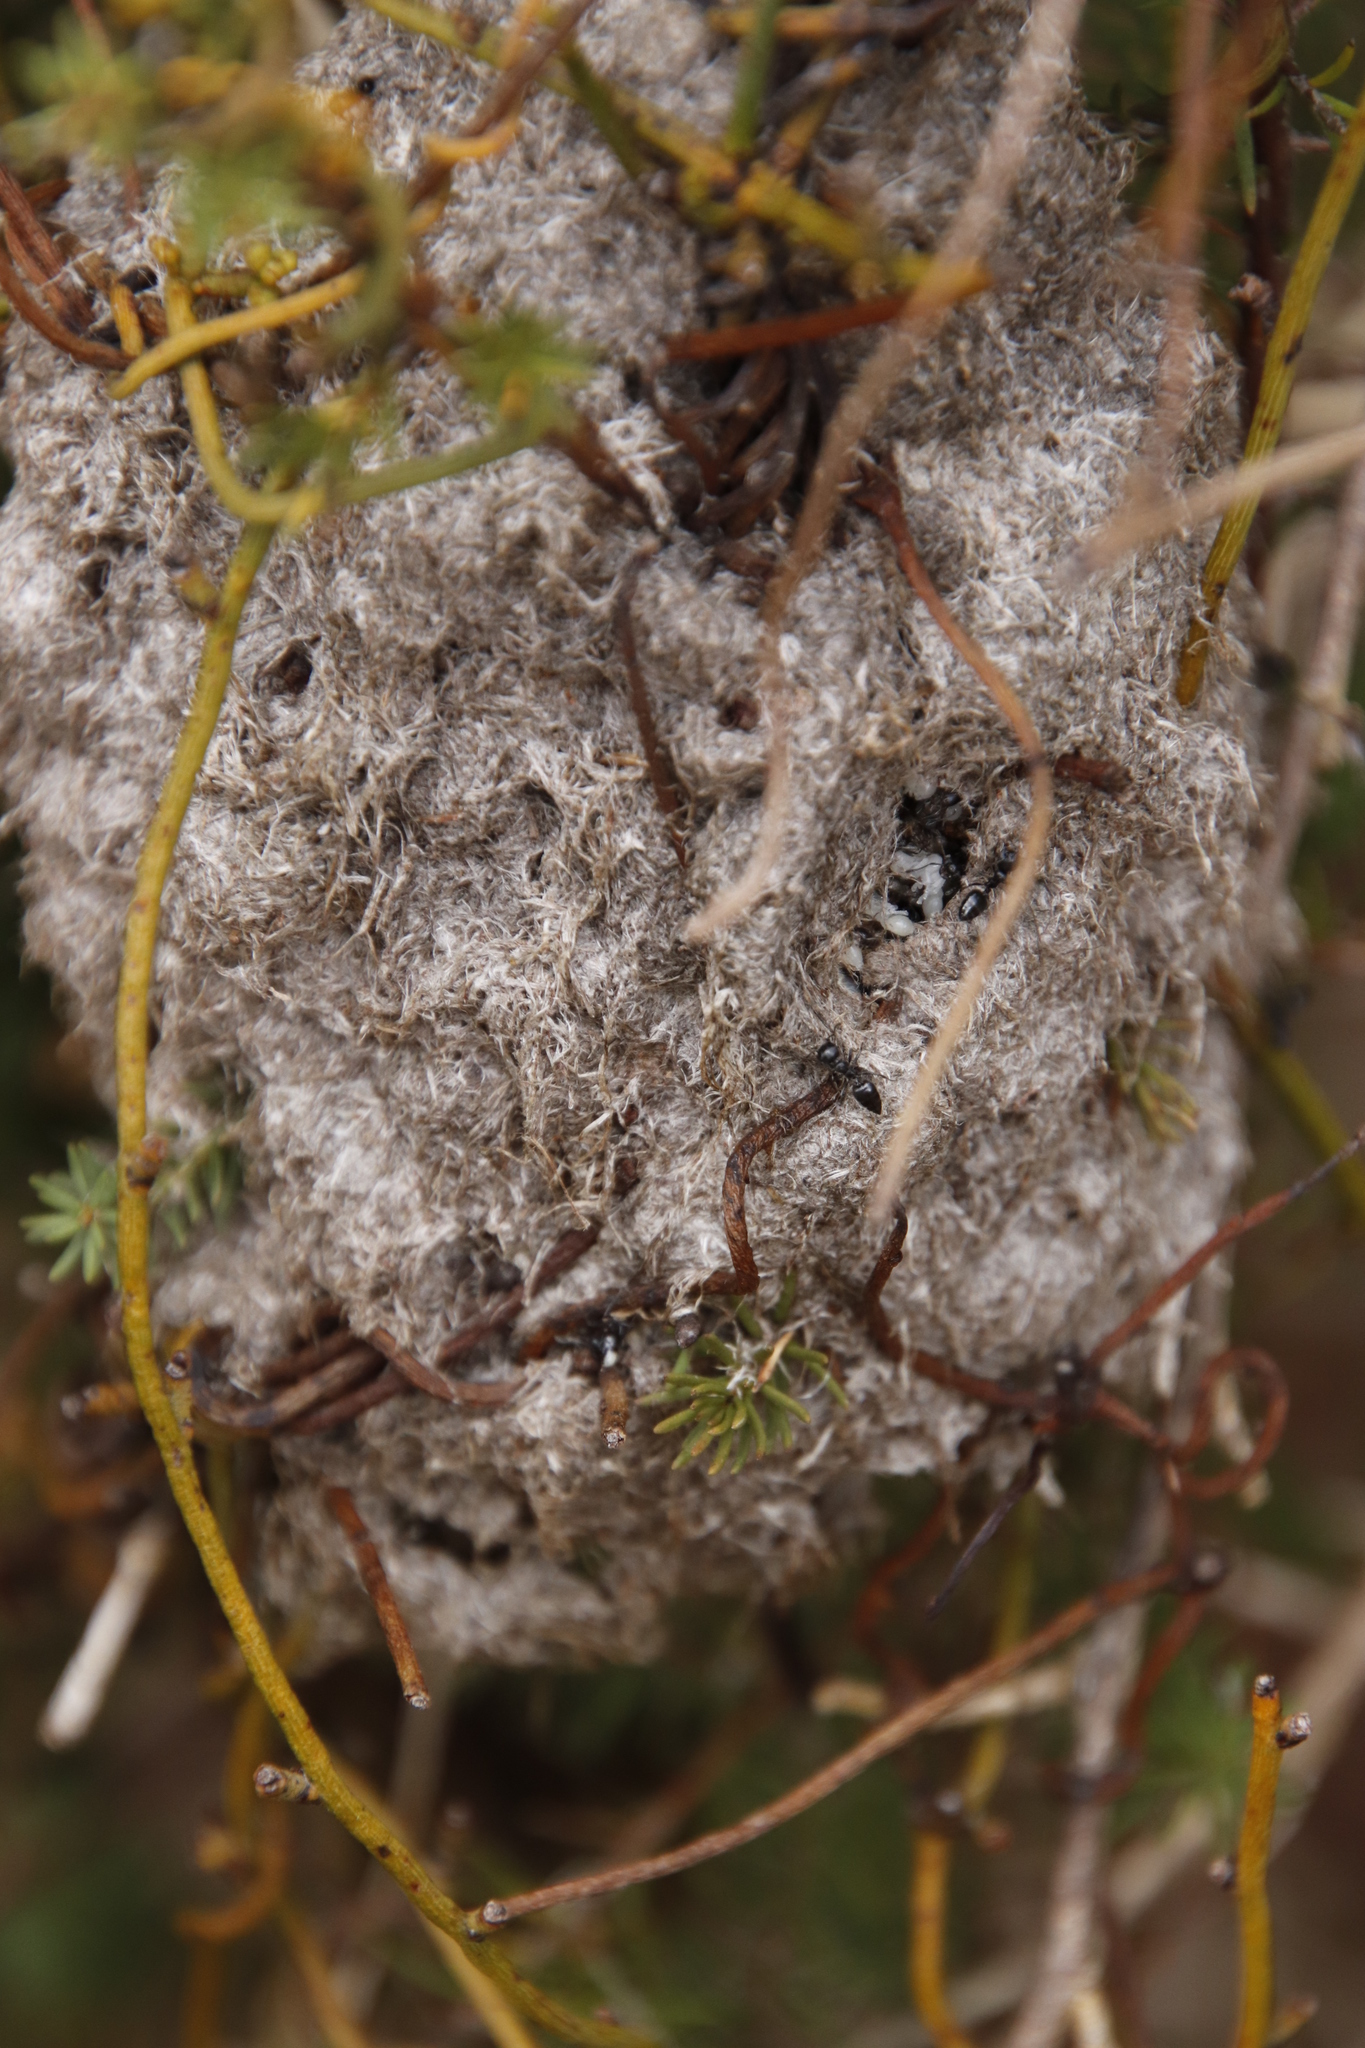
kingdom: Animalia
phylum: Arthropoda
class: Insecta
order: Hymenoptera
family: Formicidae
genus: Crematogaster
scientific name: Crematogaster peringueyi
